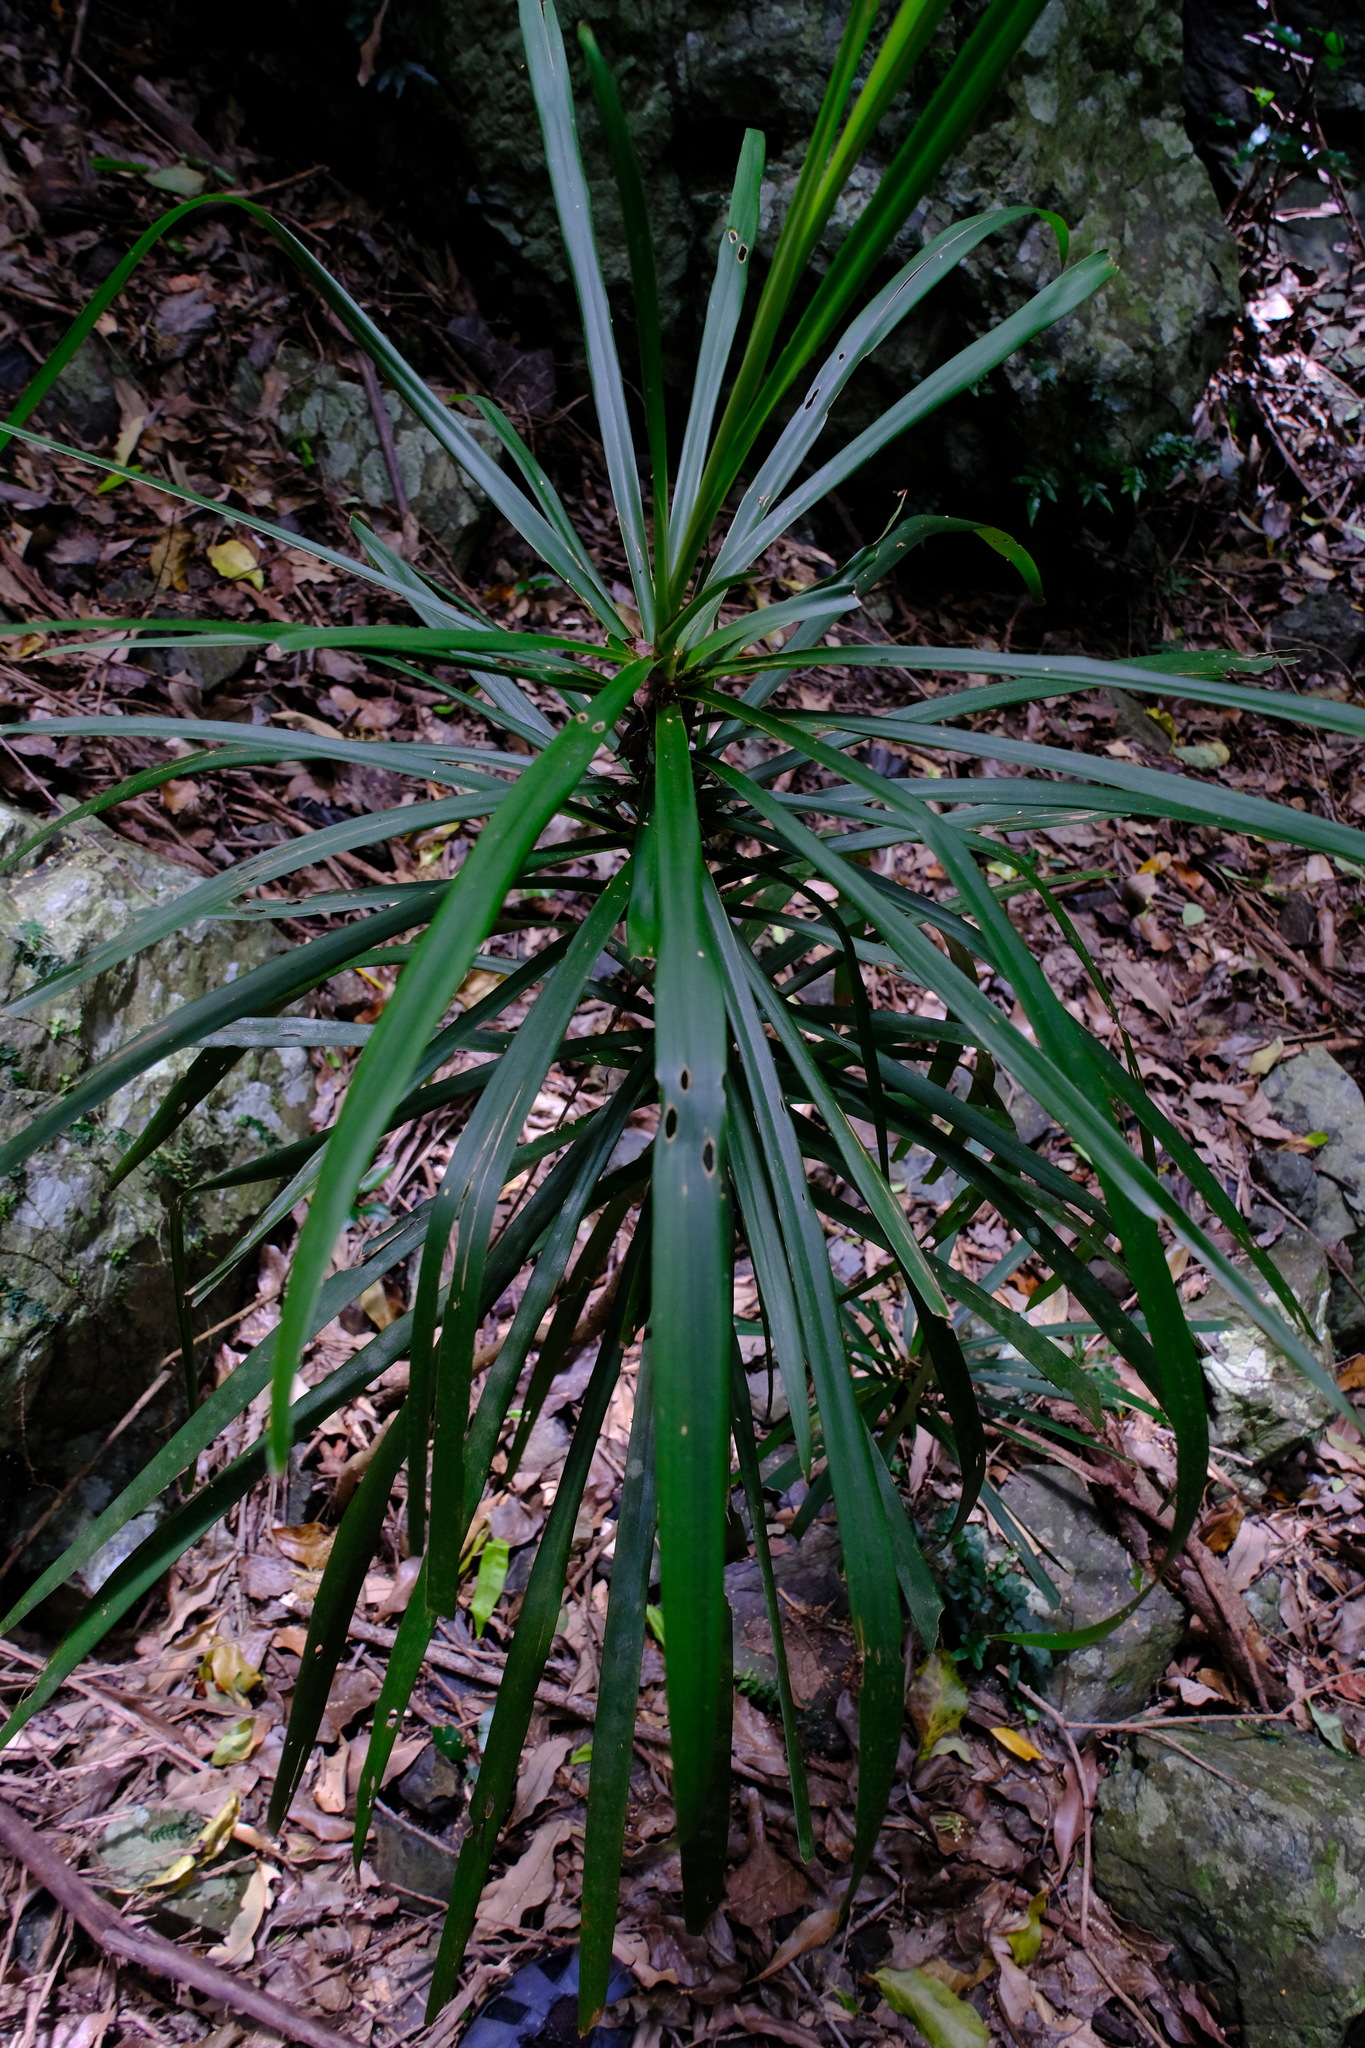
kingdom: Plantae
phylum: Tracheophyta
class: Liliopsida
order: Asparagales
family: Asparagaceae
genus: Cordyline
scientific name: Cordyline stricta
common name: Narrow-leaf palm-lily
